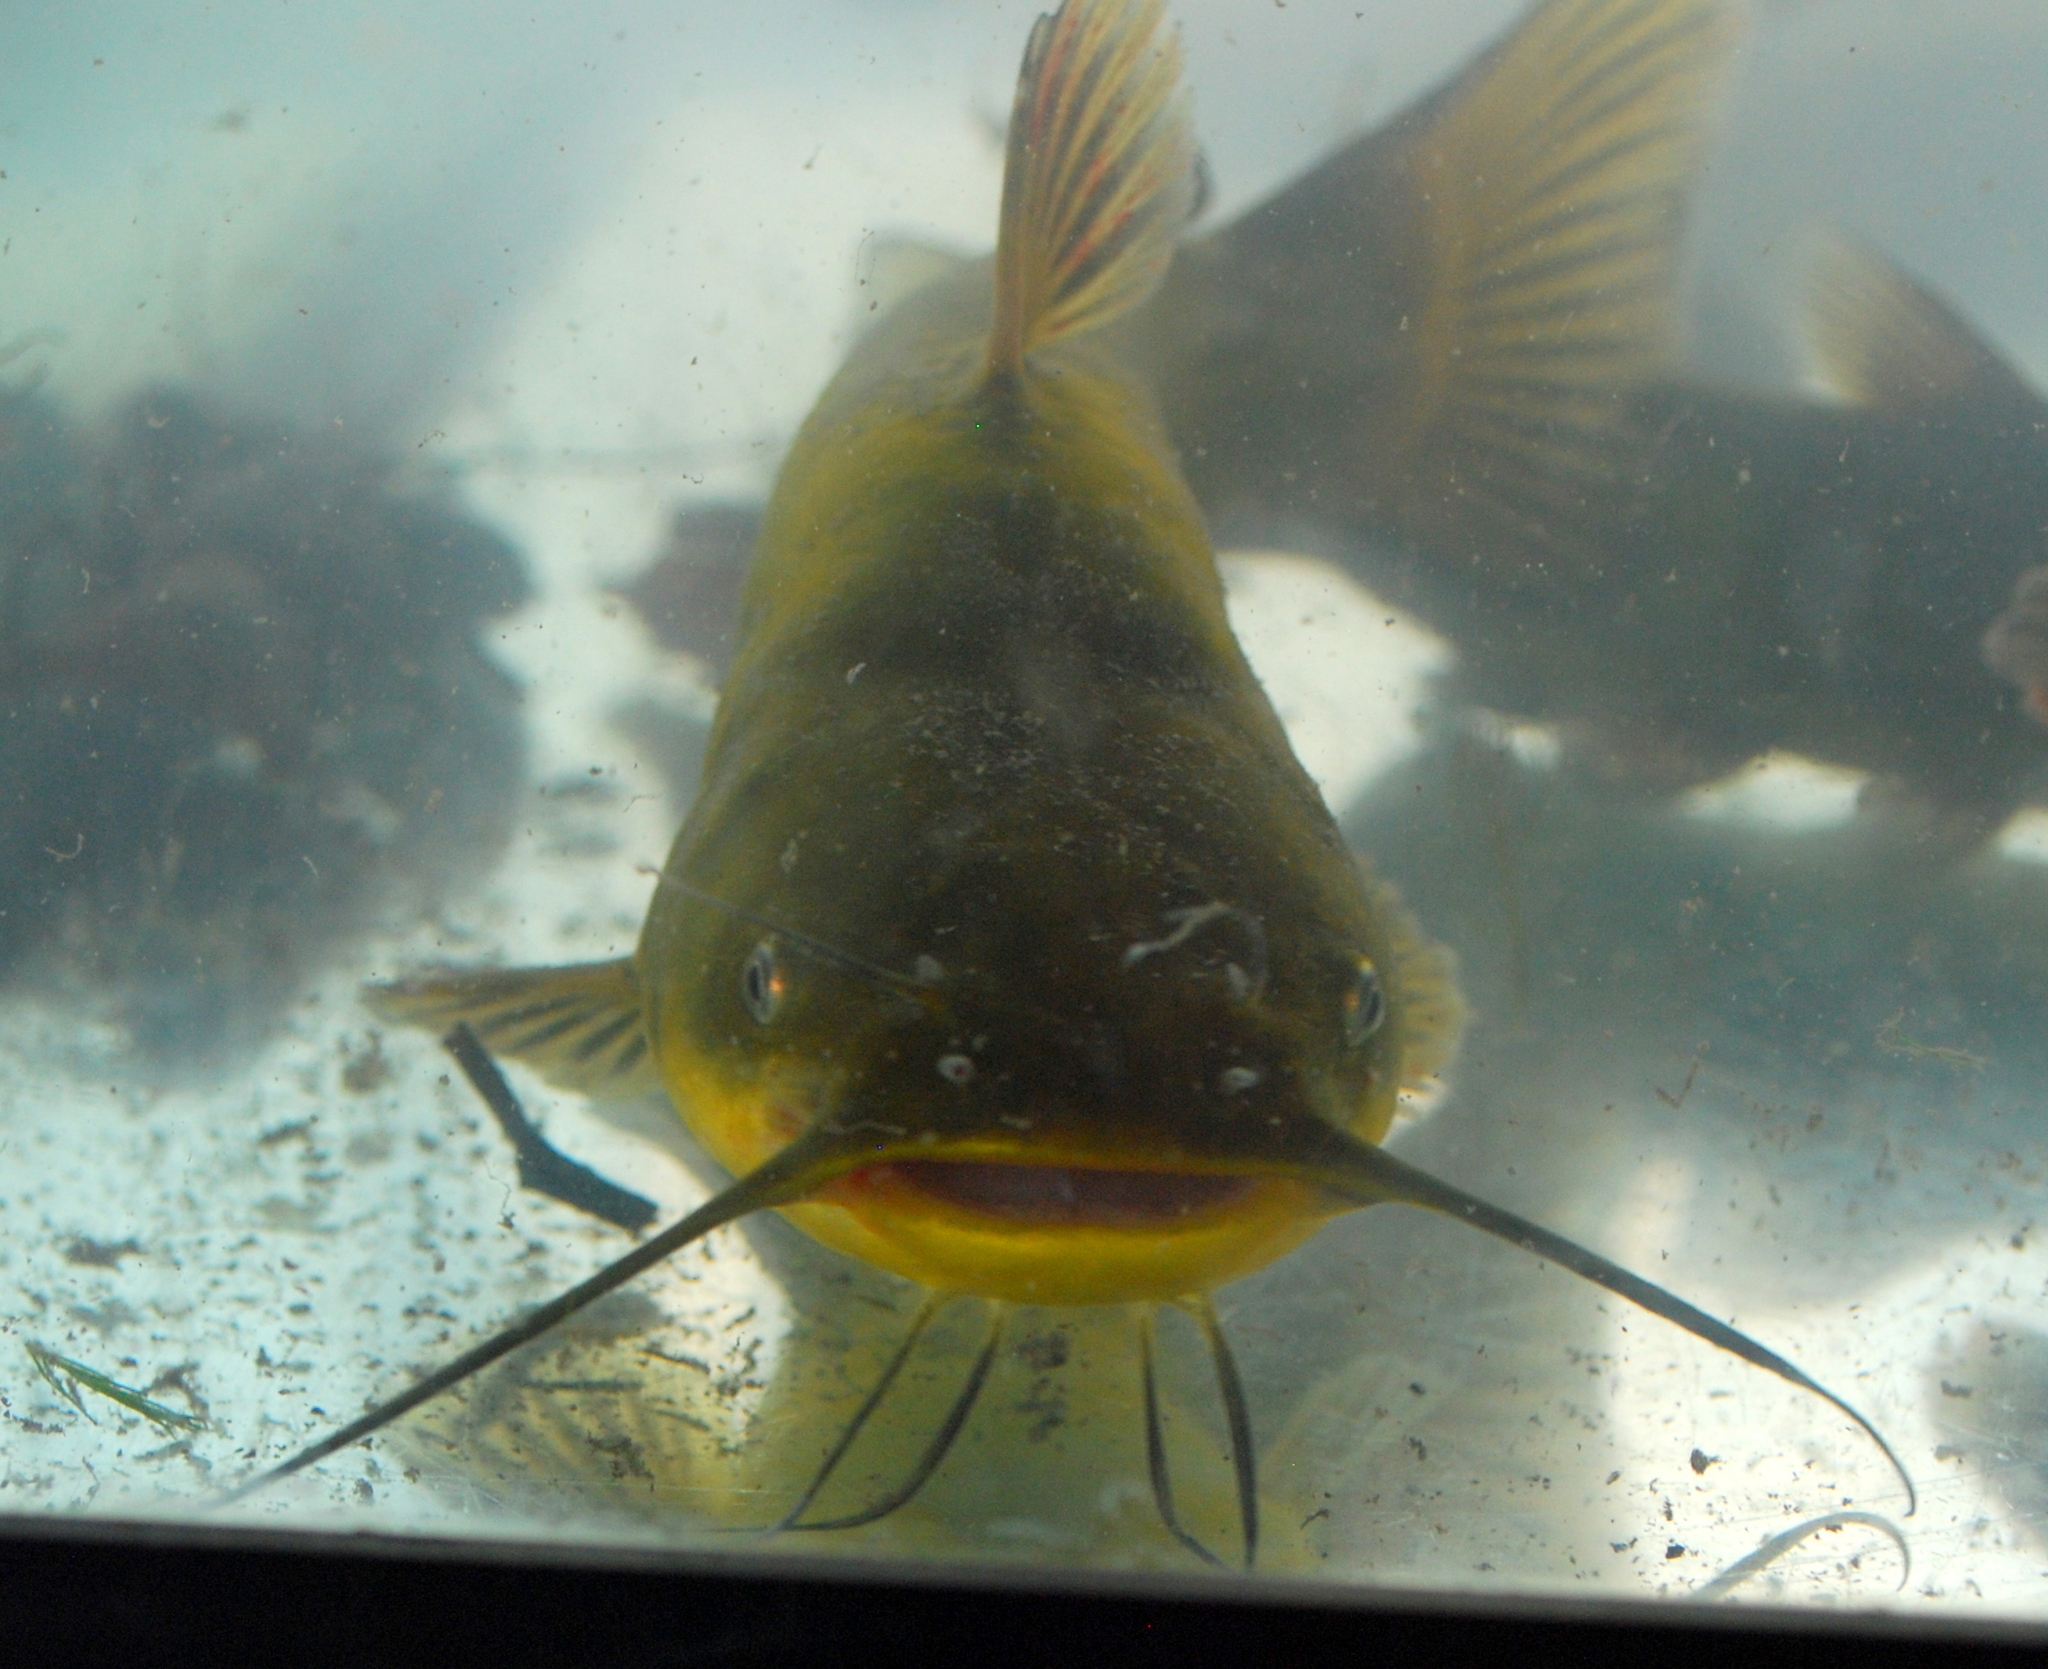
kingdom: Animalia
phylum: Chordata
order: Siluriformes
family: Ictaluridae
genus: Ameiurus
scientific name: Ameiurus melas
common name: Black bullhead
